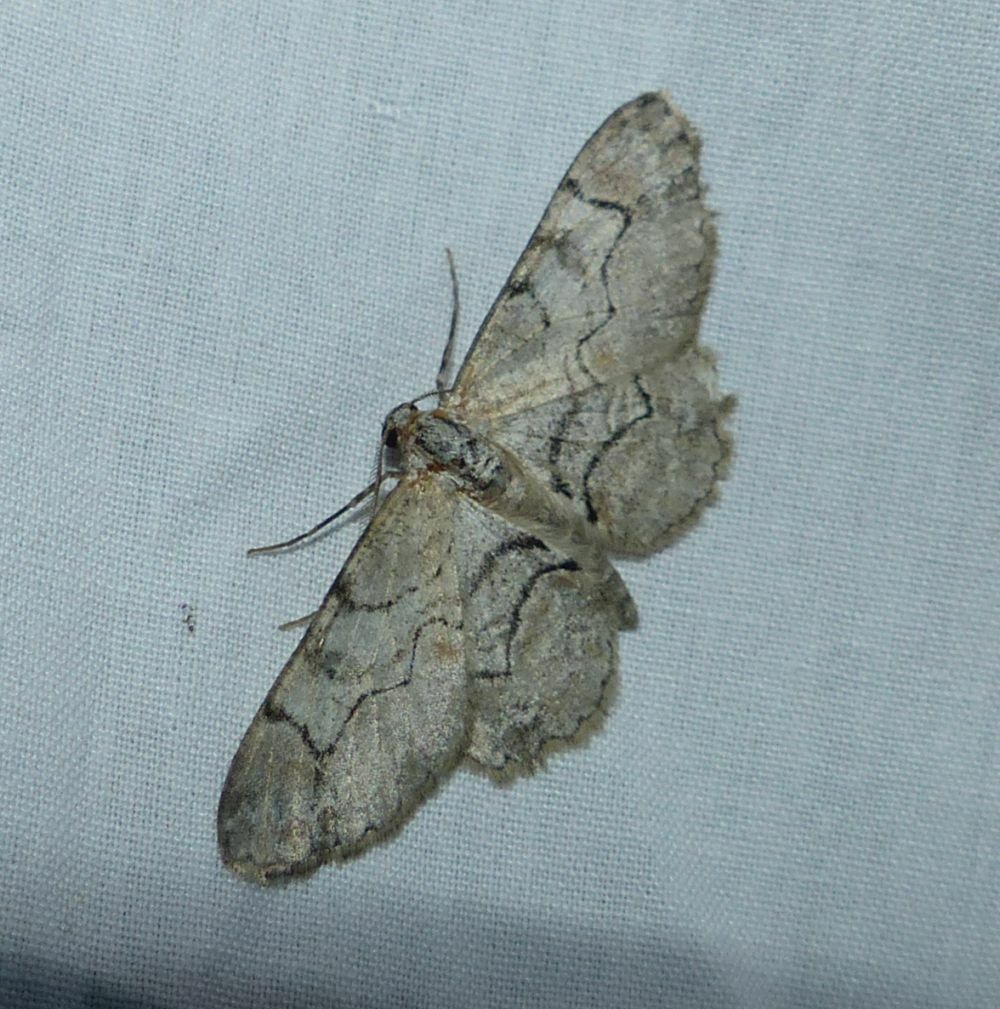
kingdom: Animalia
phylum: Arthropoda
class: Insecta
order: Lepidoptera
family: Geometridae
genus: Iridopsis
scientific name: Iridopsis larvaria
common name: Bent-line gray
